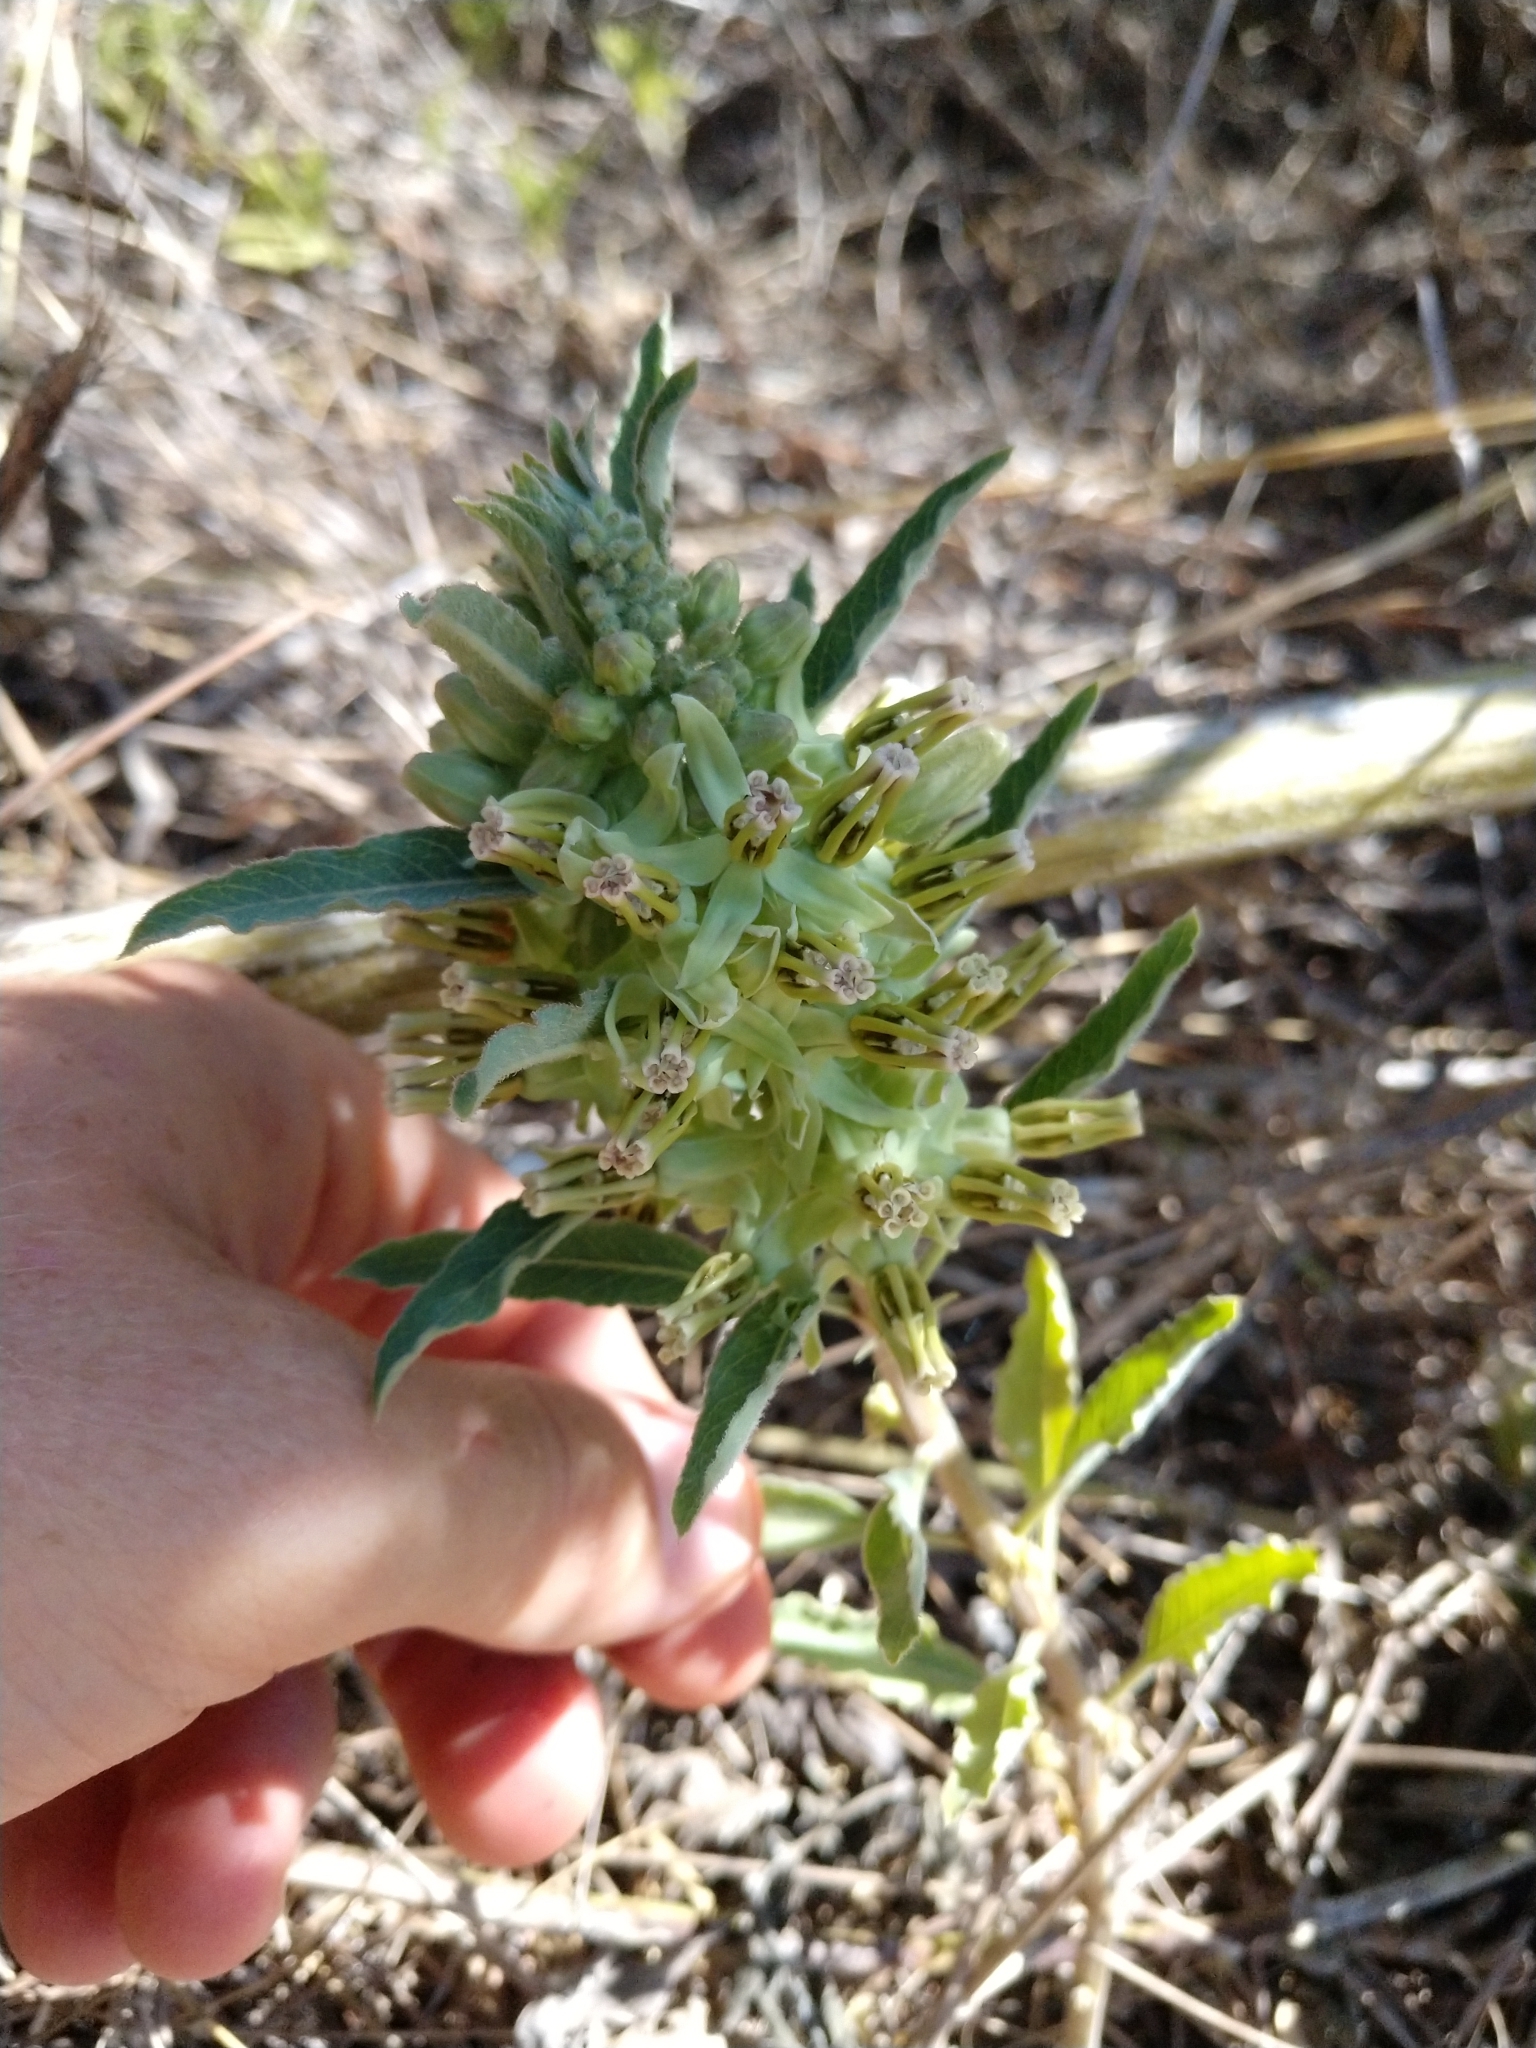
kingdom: Plantae
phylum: Tracheophyta
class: Magnoliopsida
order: Gentianales
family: Apocynaceae
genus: Asclepias
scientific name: Asclepias oenotheroides
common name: Zizotes milkweed
